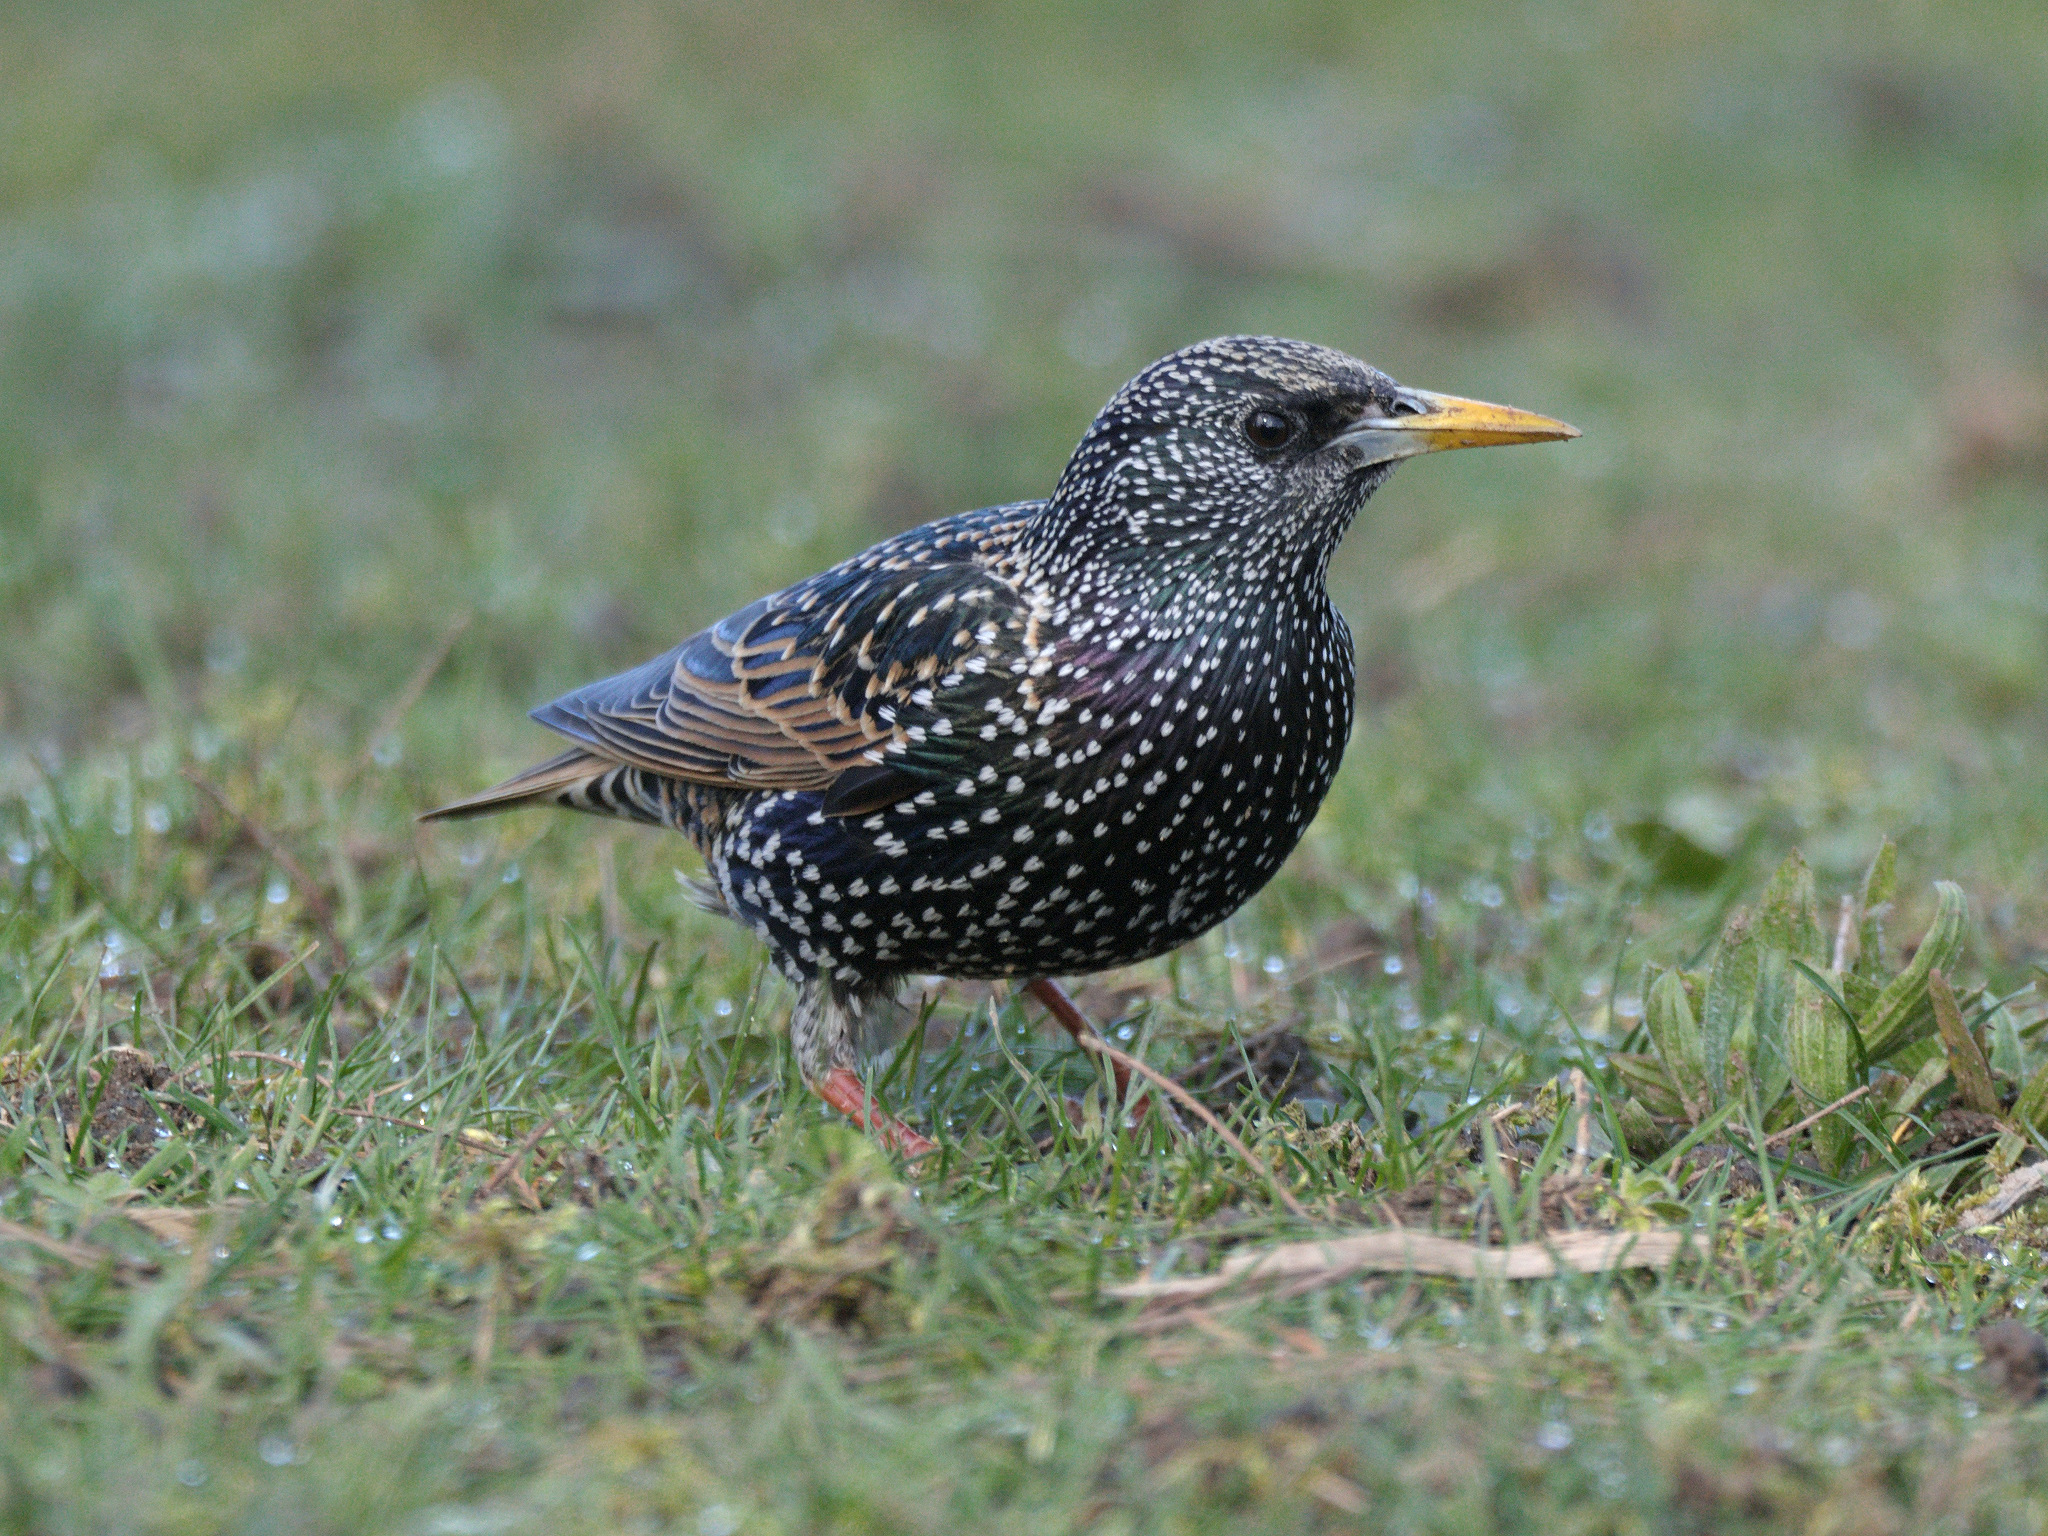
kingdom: Animalia
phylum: Chordata
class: Aves
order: Passeriformes
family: Sturnidae
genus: Sturnus
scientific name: Sturnus vulgaris
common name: Common starling
